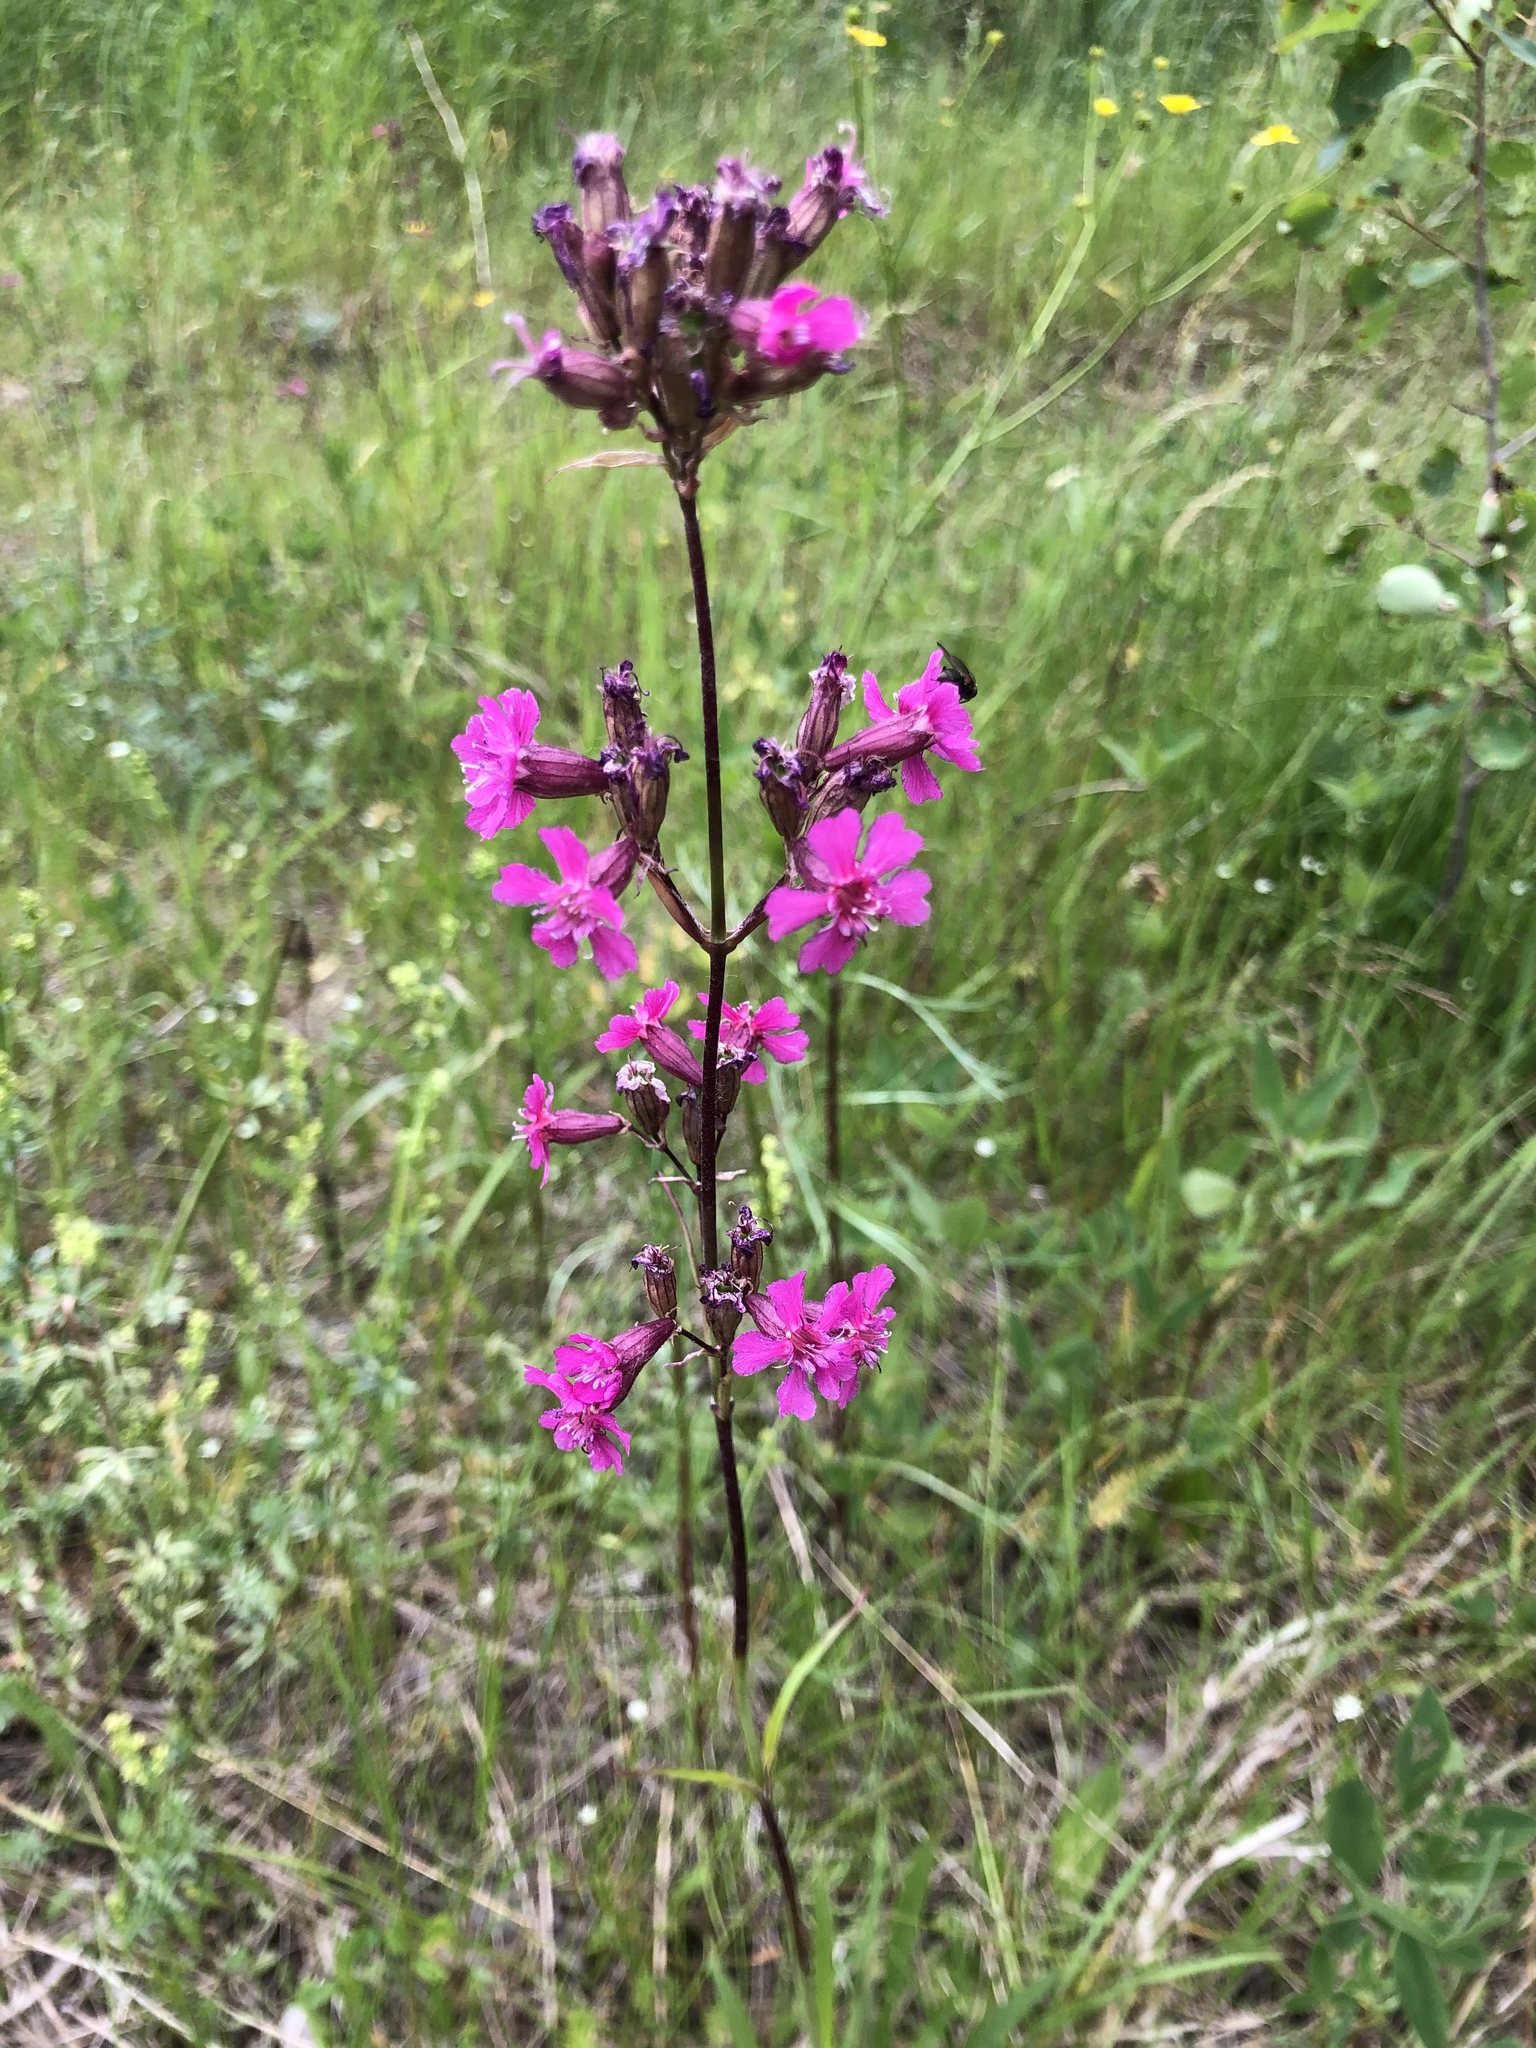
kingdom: Plantae
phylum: Tracheophyta
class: Magnoliopsida
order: Caryophyllales
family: Caryophyllaceae
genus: Viscaria
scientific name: Viscaria vulgaris
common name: Clammy campion
